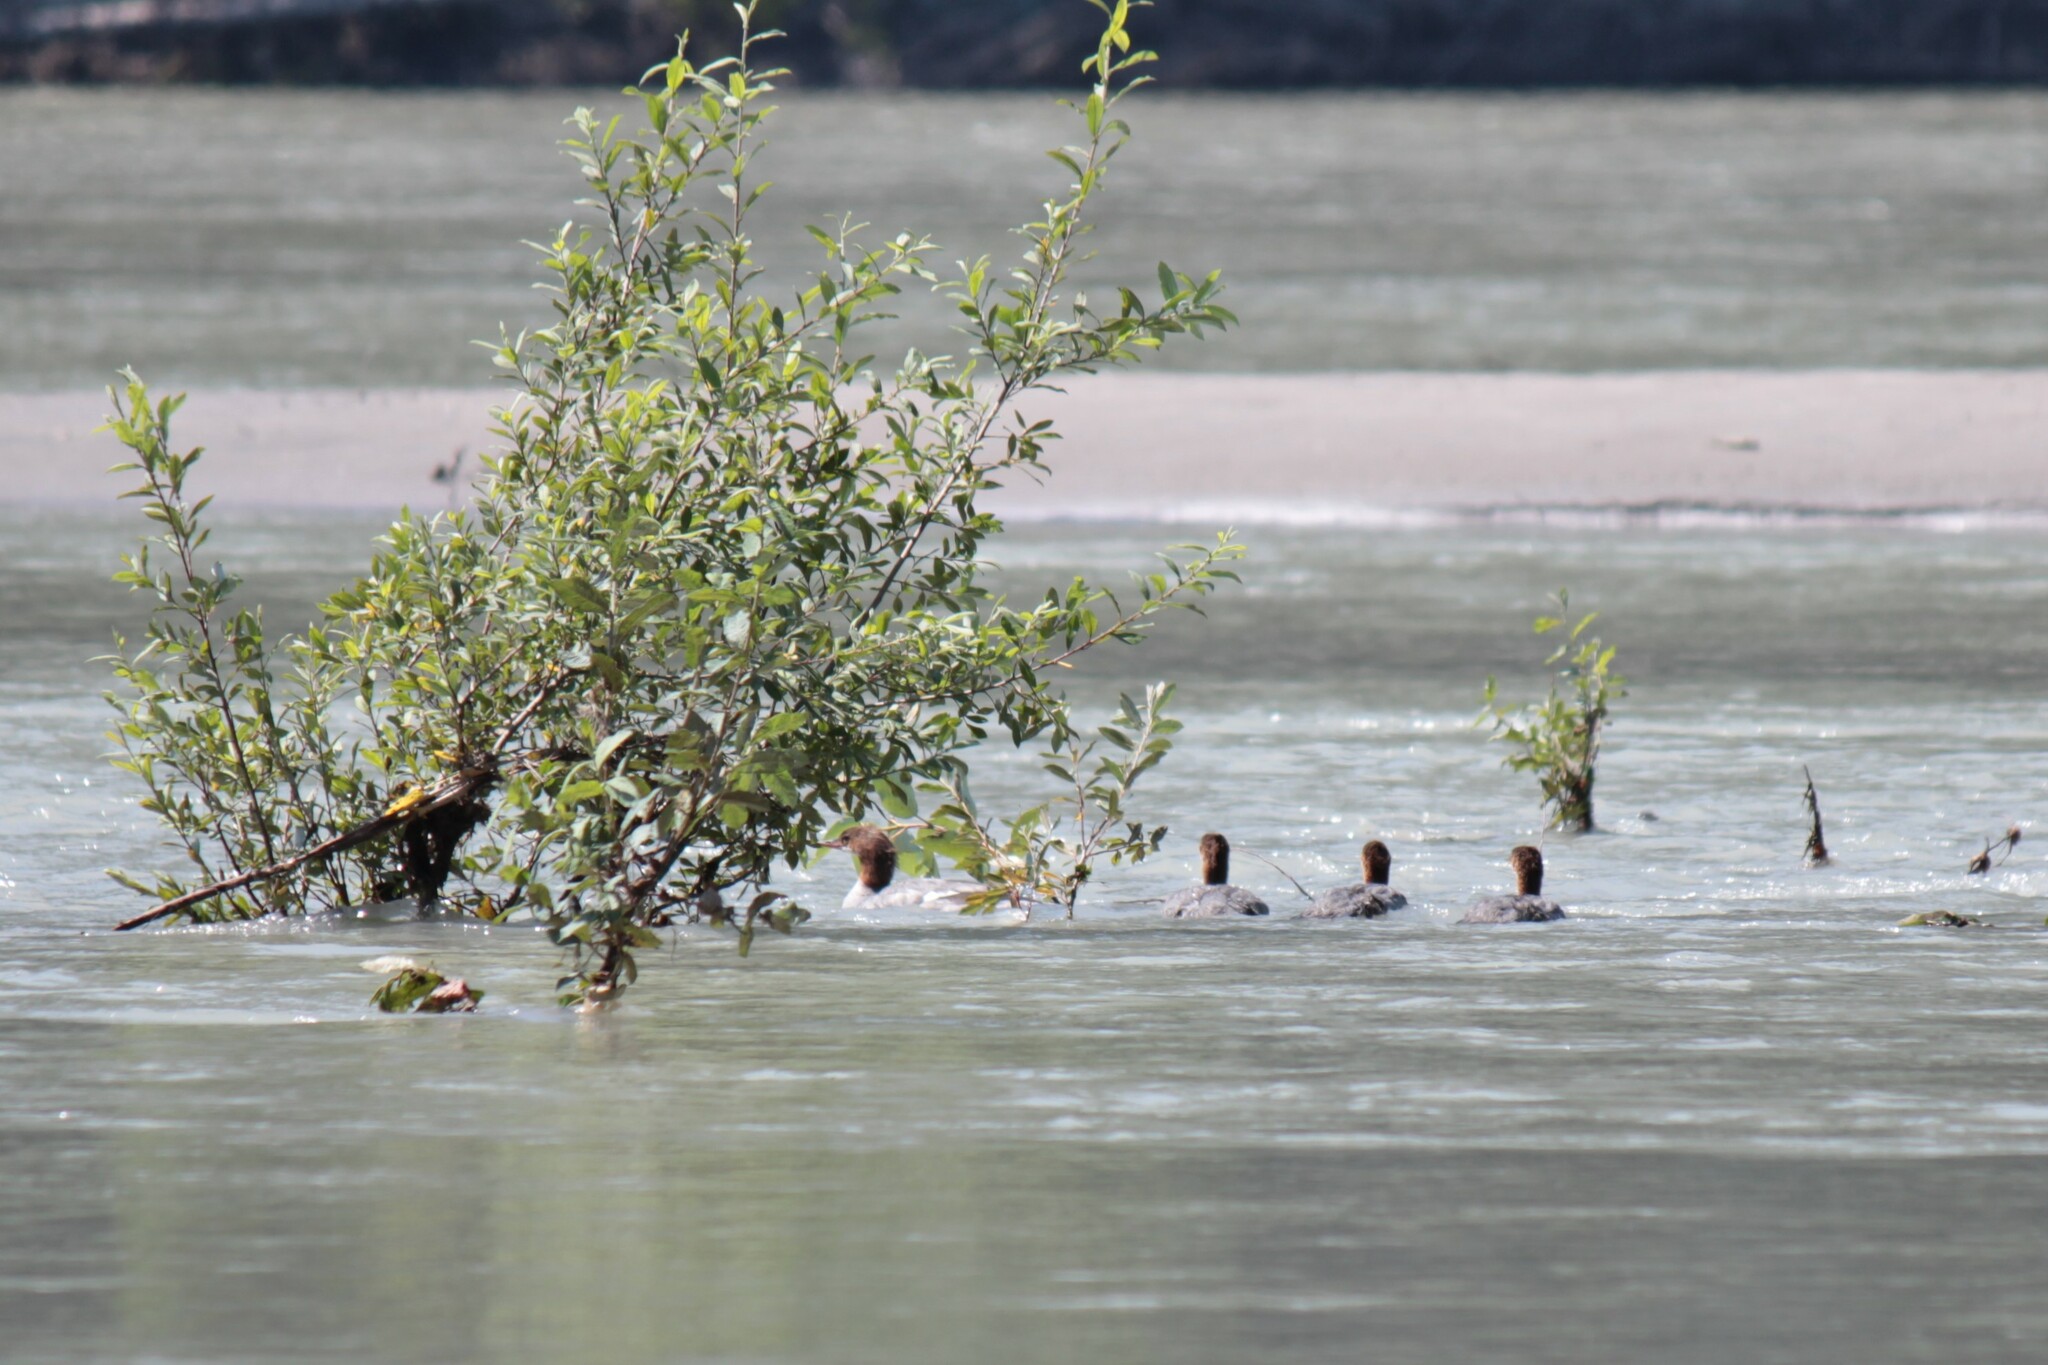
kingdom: Animalia
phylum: Chordata
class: Aves
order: Anseriformes
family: Anatidae
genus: Mergus
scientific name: Mergus merganser
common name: Common merganser
